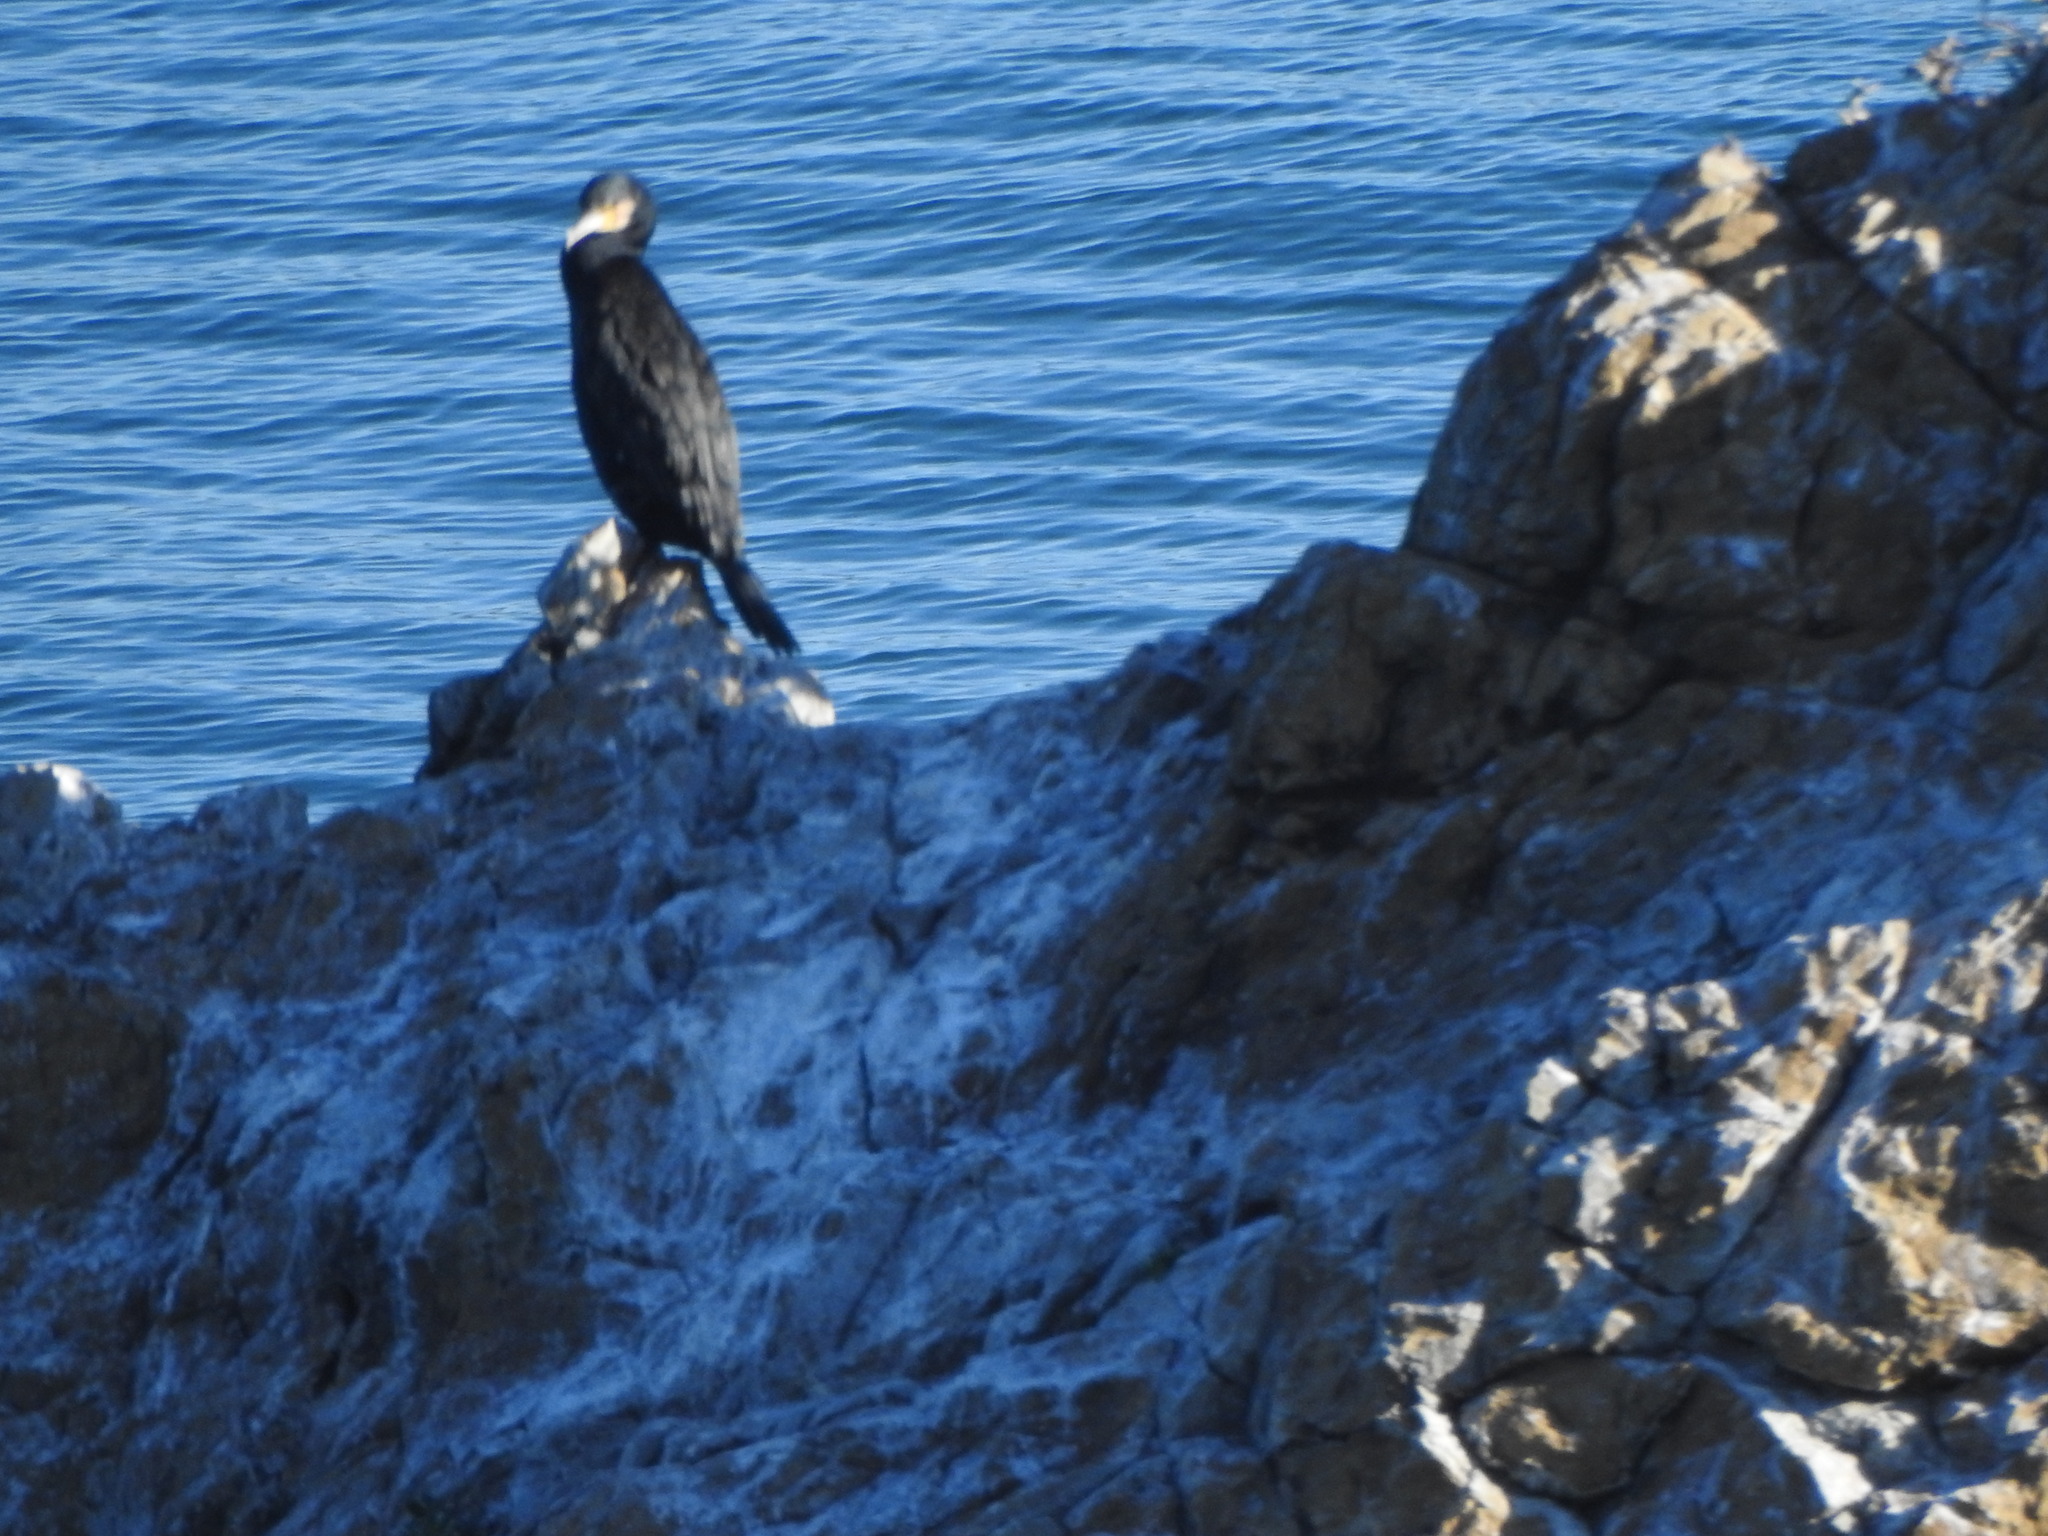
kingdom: Animalia
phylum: Chordata
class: Aves
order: Suliformes
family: Phalacrocoracidae
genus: Phalacrocorax
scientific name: Phalacrocorax carbo
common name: Great cormorant
